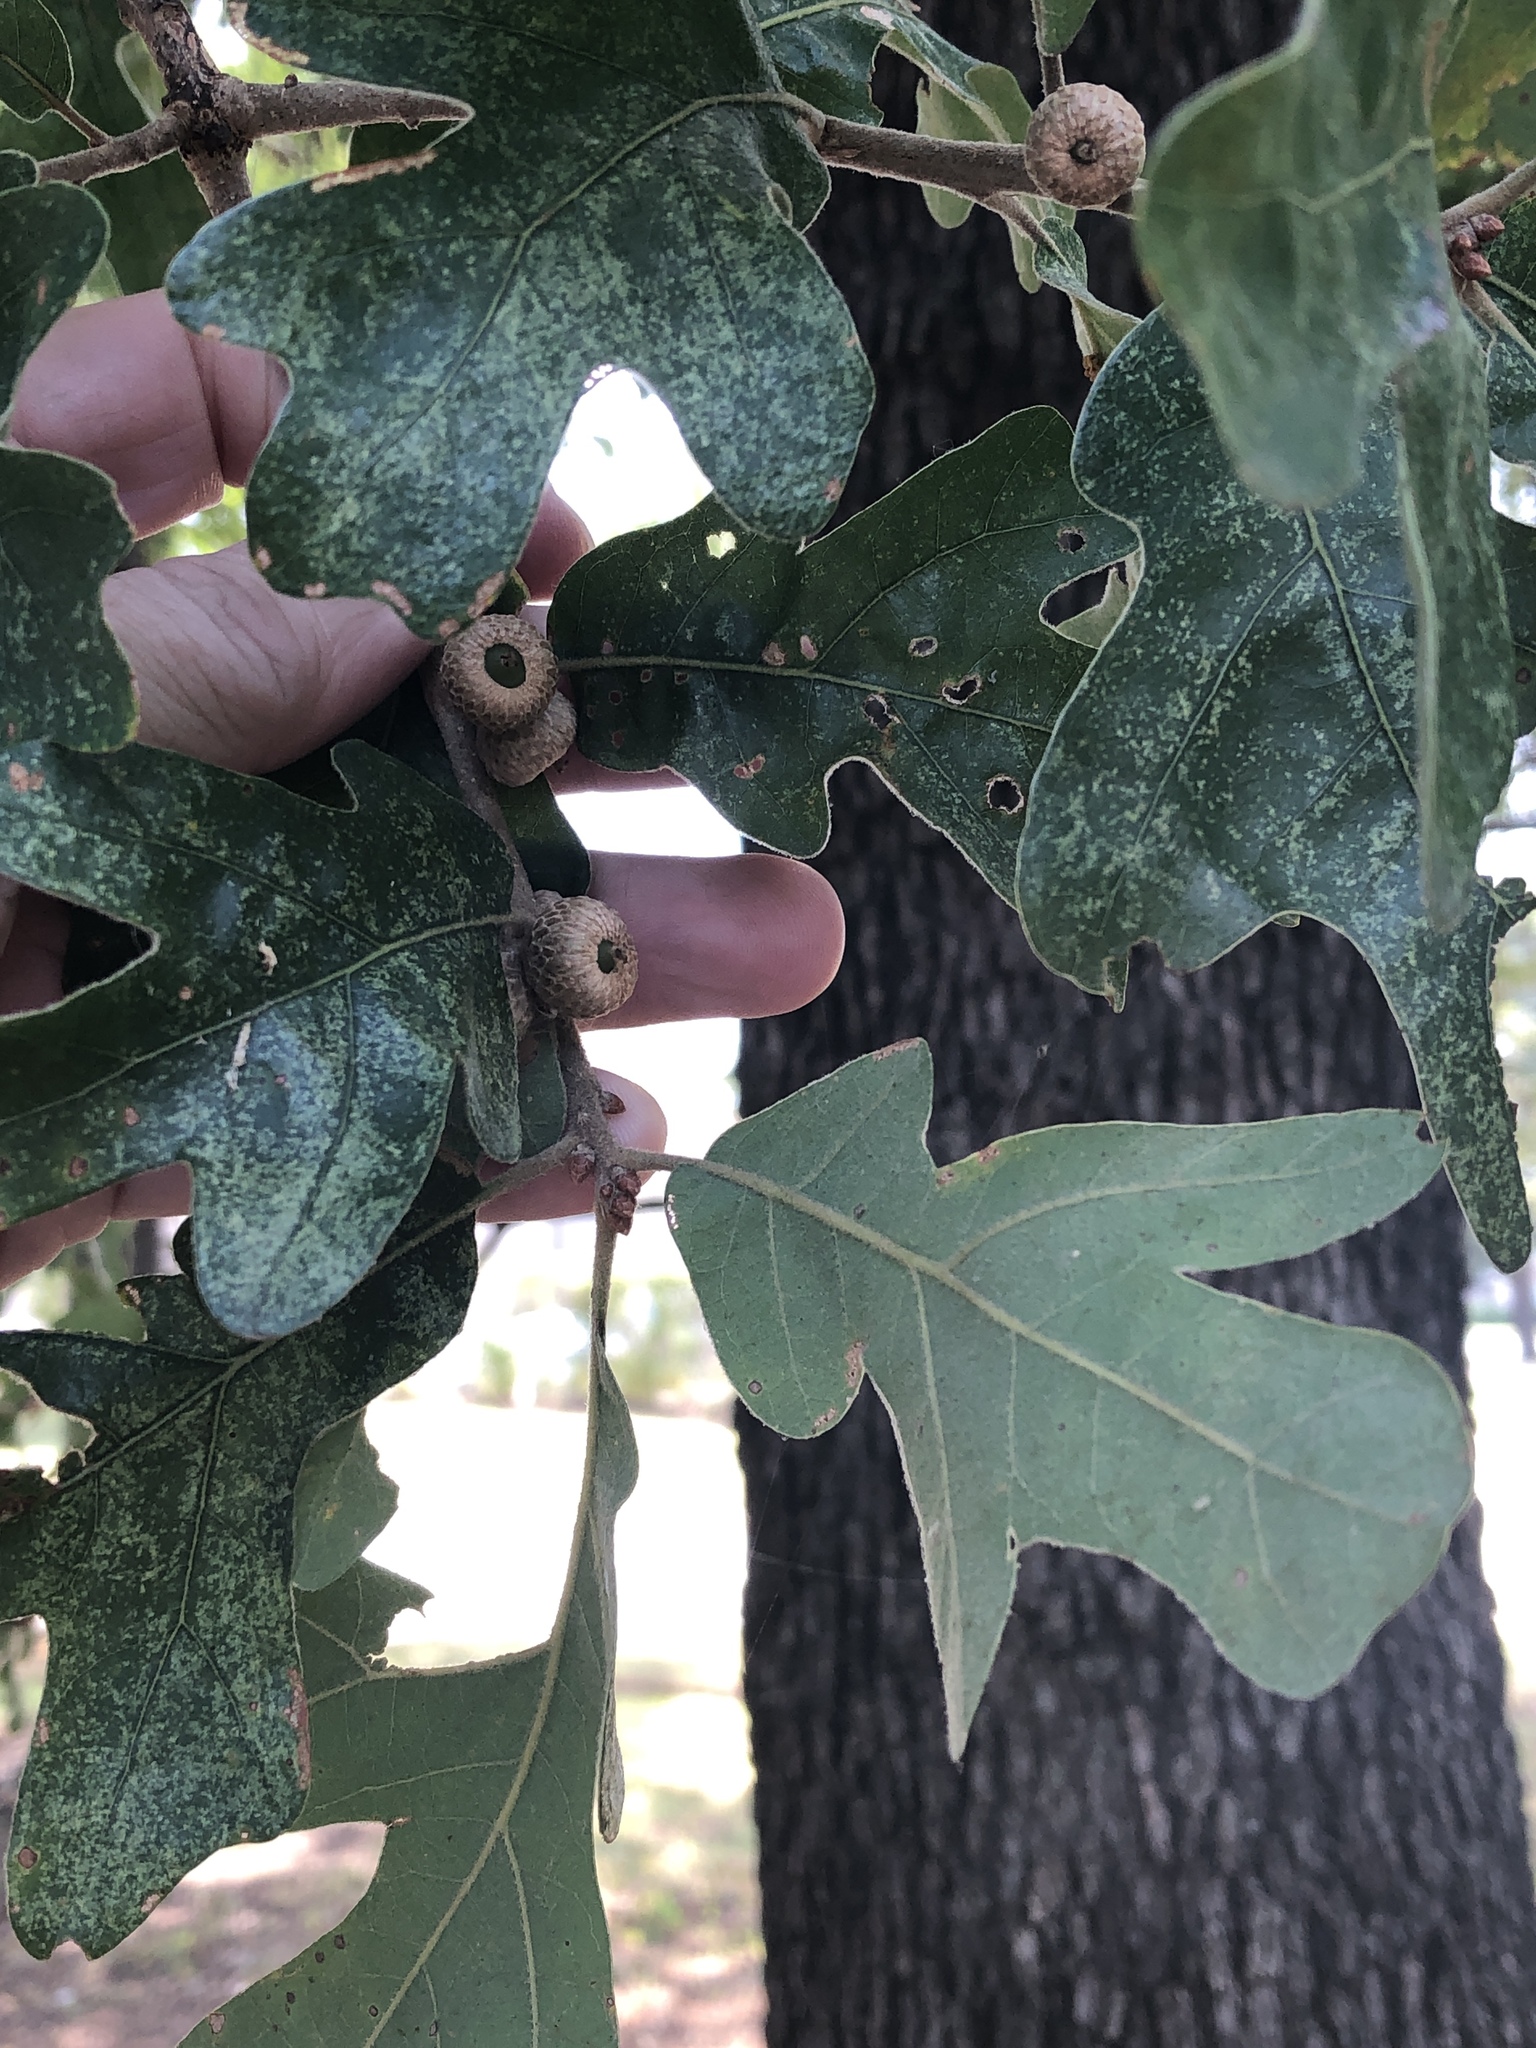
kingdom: Plantae
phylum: Tracheophyta
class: Magnoliopsida
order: Fagales
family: Fagaceae
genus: Quercus
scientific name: Quercus stellata
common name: Post oak
